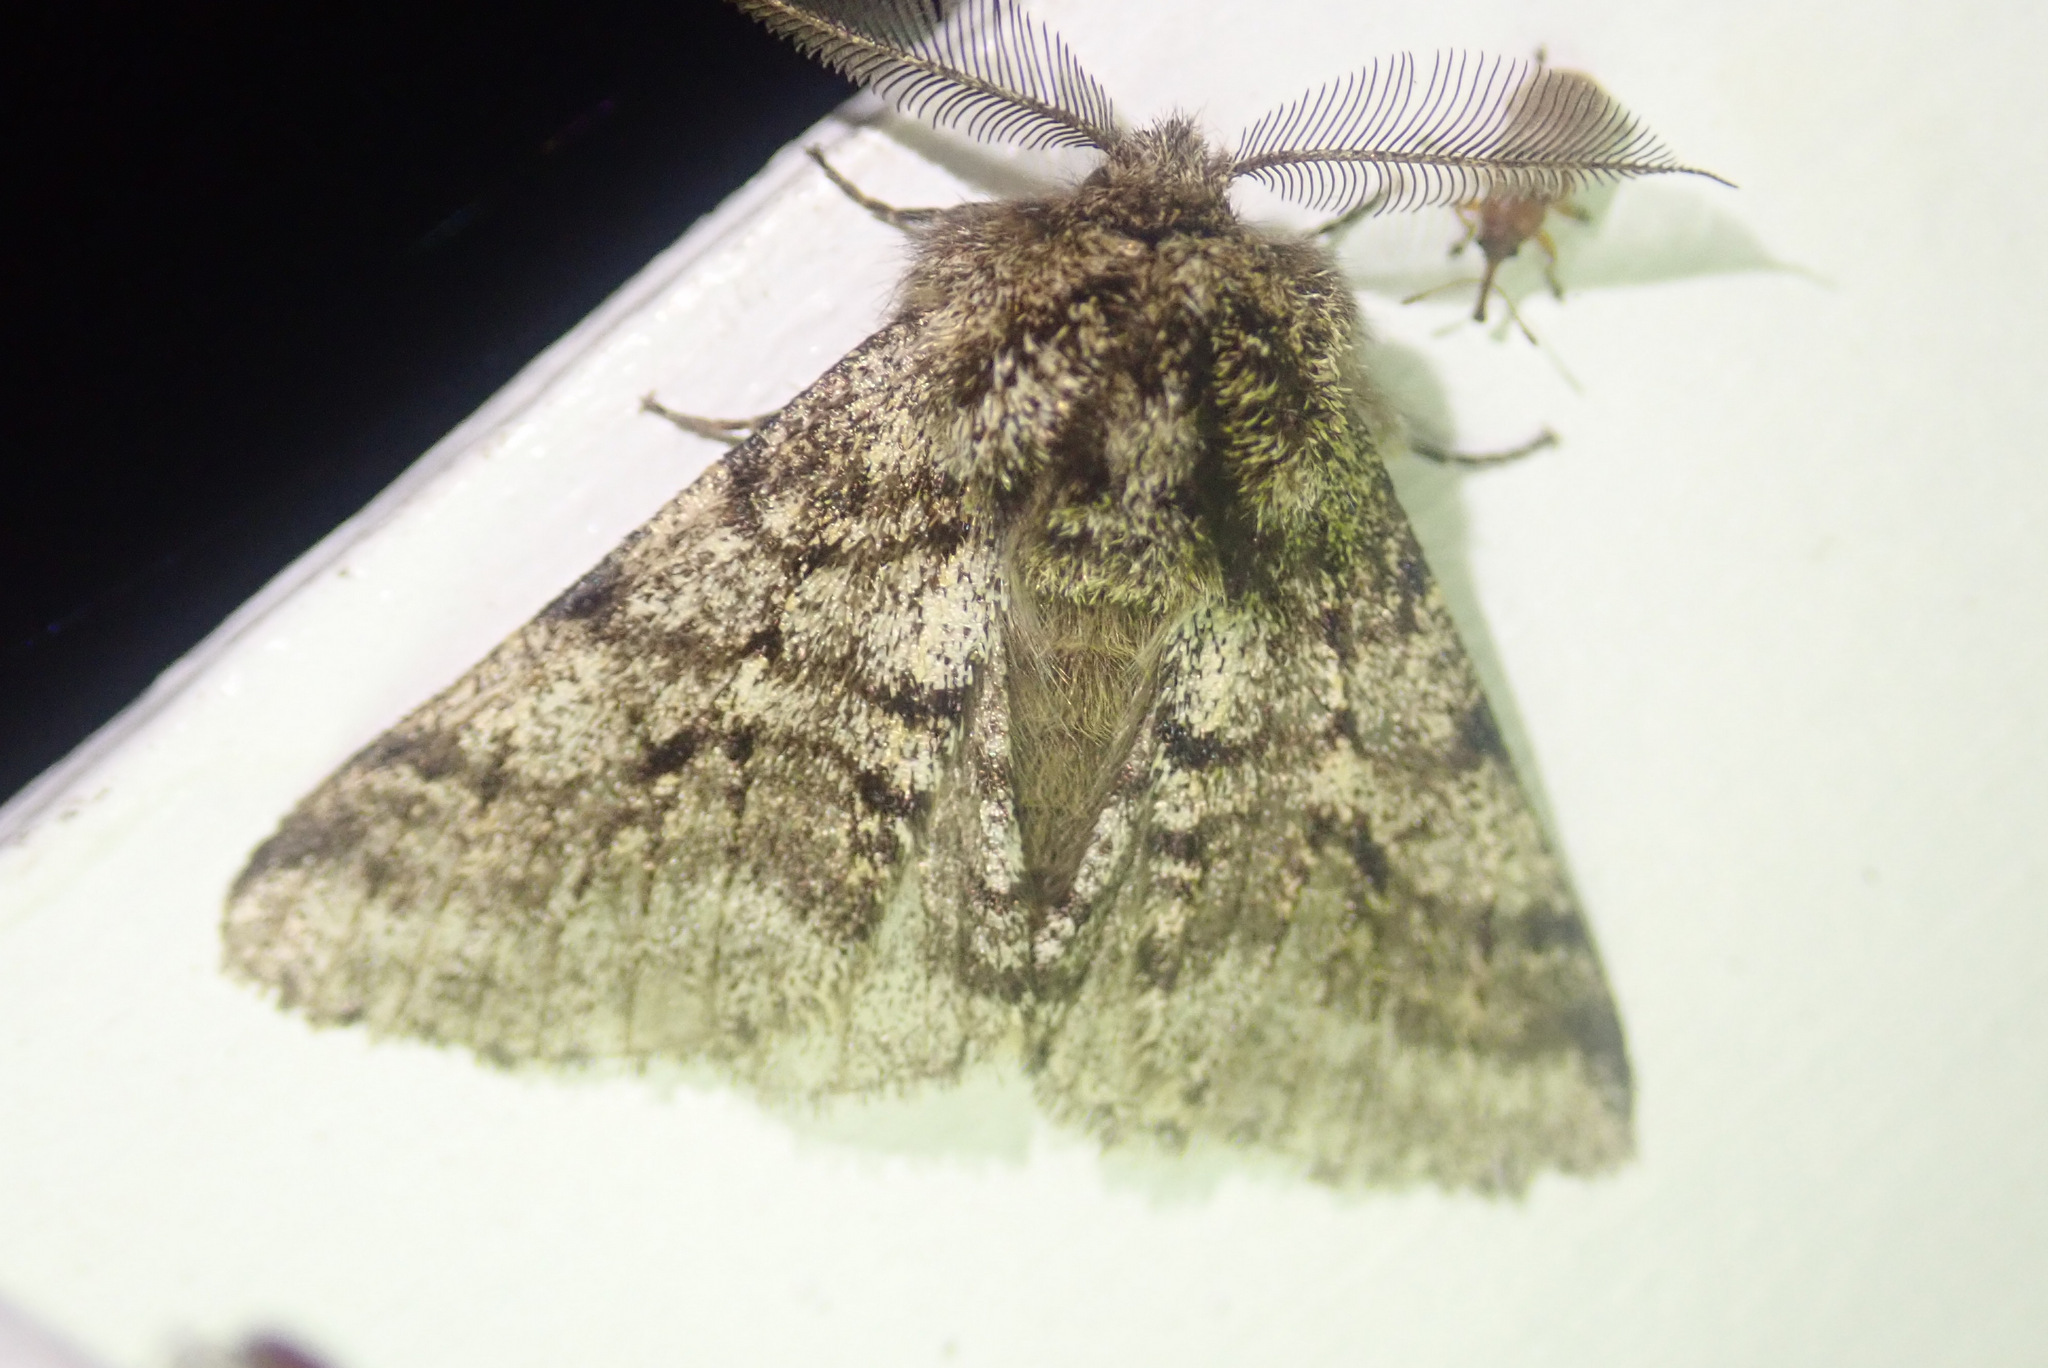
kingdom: Animalia
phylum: Arthropoda
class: Insecta
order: Lepidoptera
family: Geometridae
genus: Lycia
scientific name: Lycia hirtaria
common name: Brindled beauty
